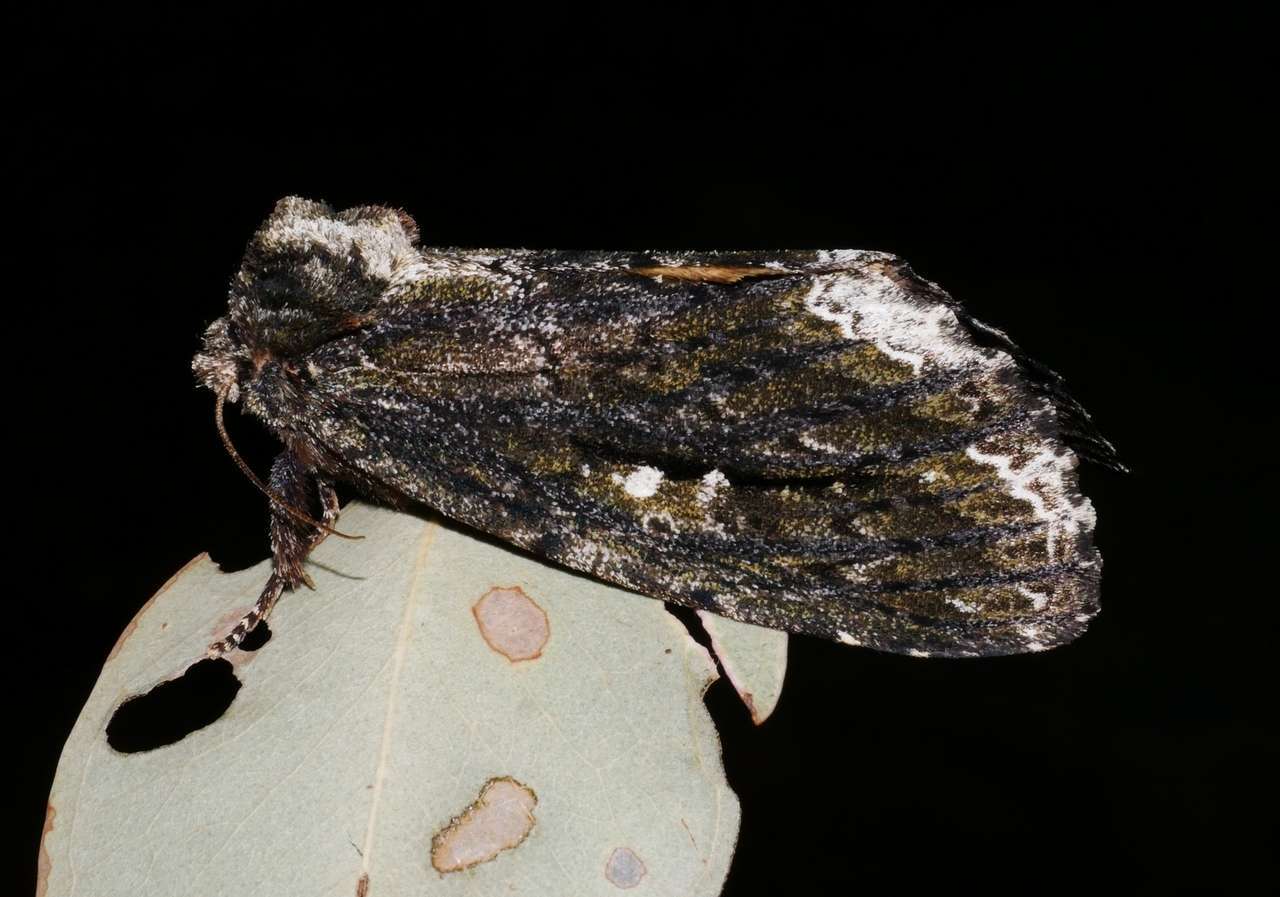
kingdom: Animalia
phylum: Arthropoda
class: Insecta
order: Lepidoptera
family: Notodontidae
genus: Neola
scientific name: Neola semiaurata
